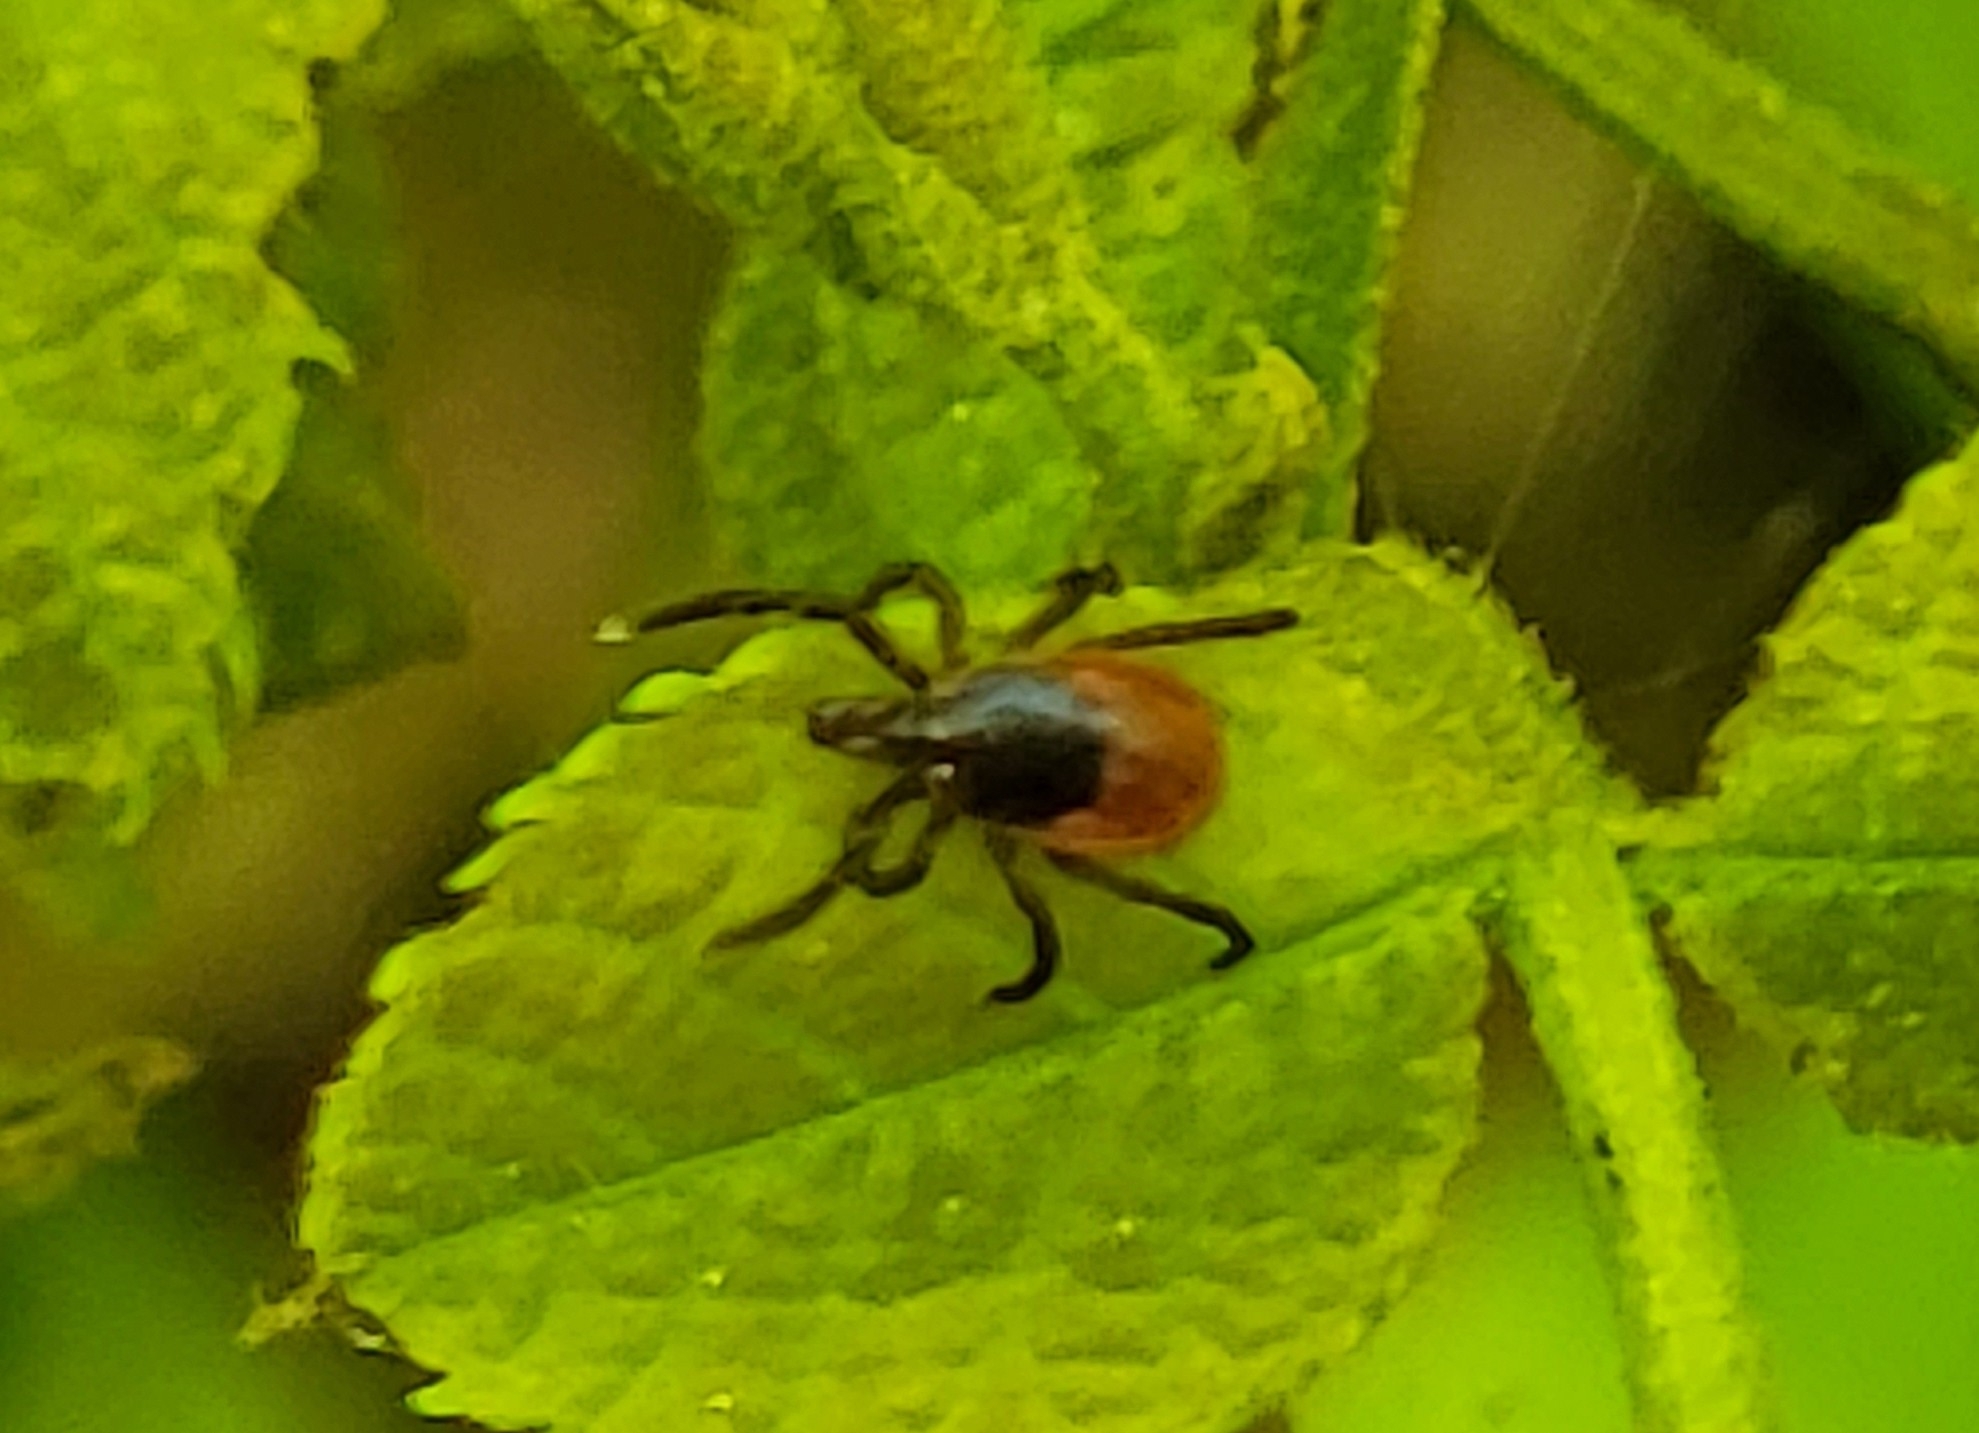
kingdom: Animalia
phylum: Arthropoda
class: Arachnida
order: Ixodida
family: Ixodidae
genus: Ixodes
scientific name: Ixodes scapularis
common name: Black legged tick
